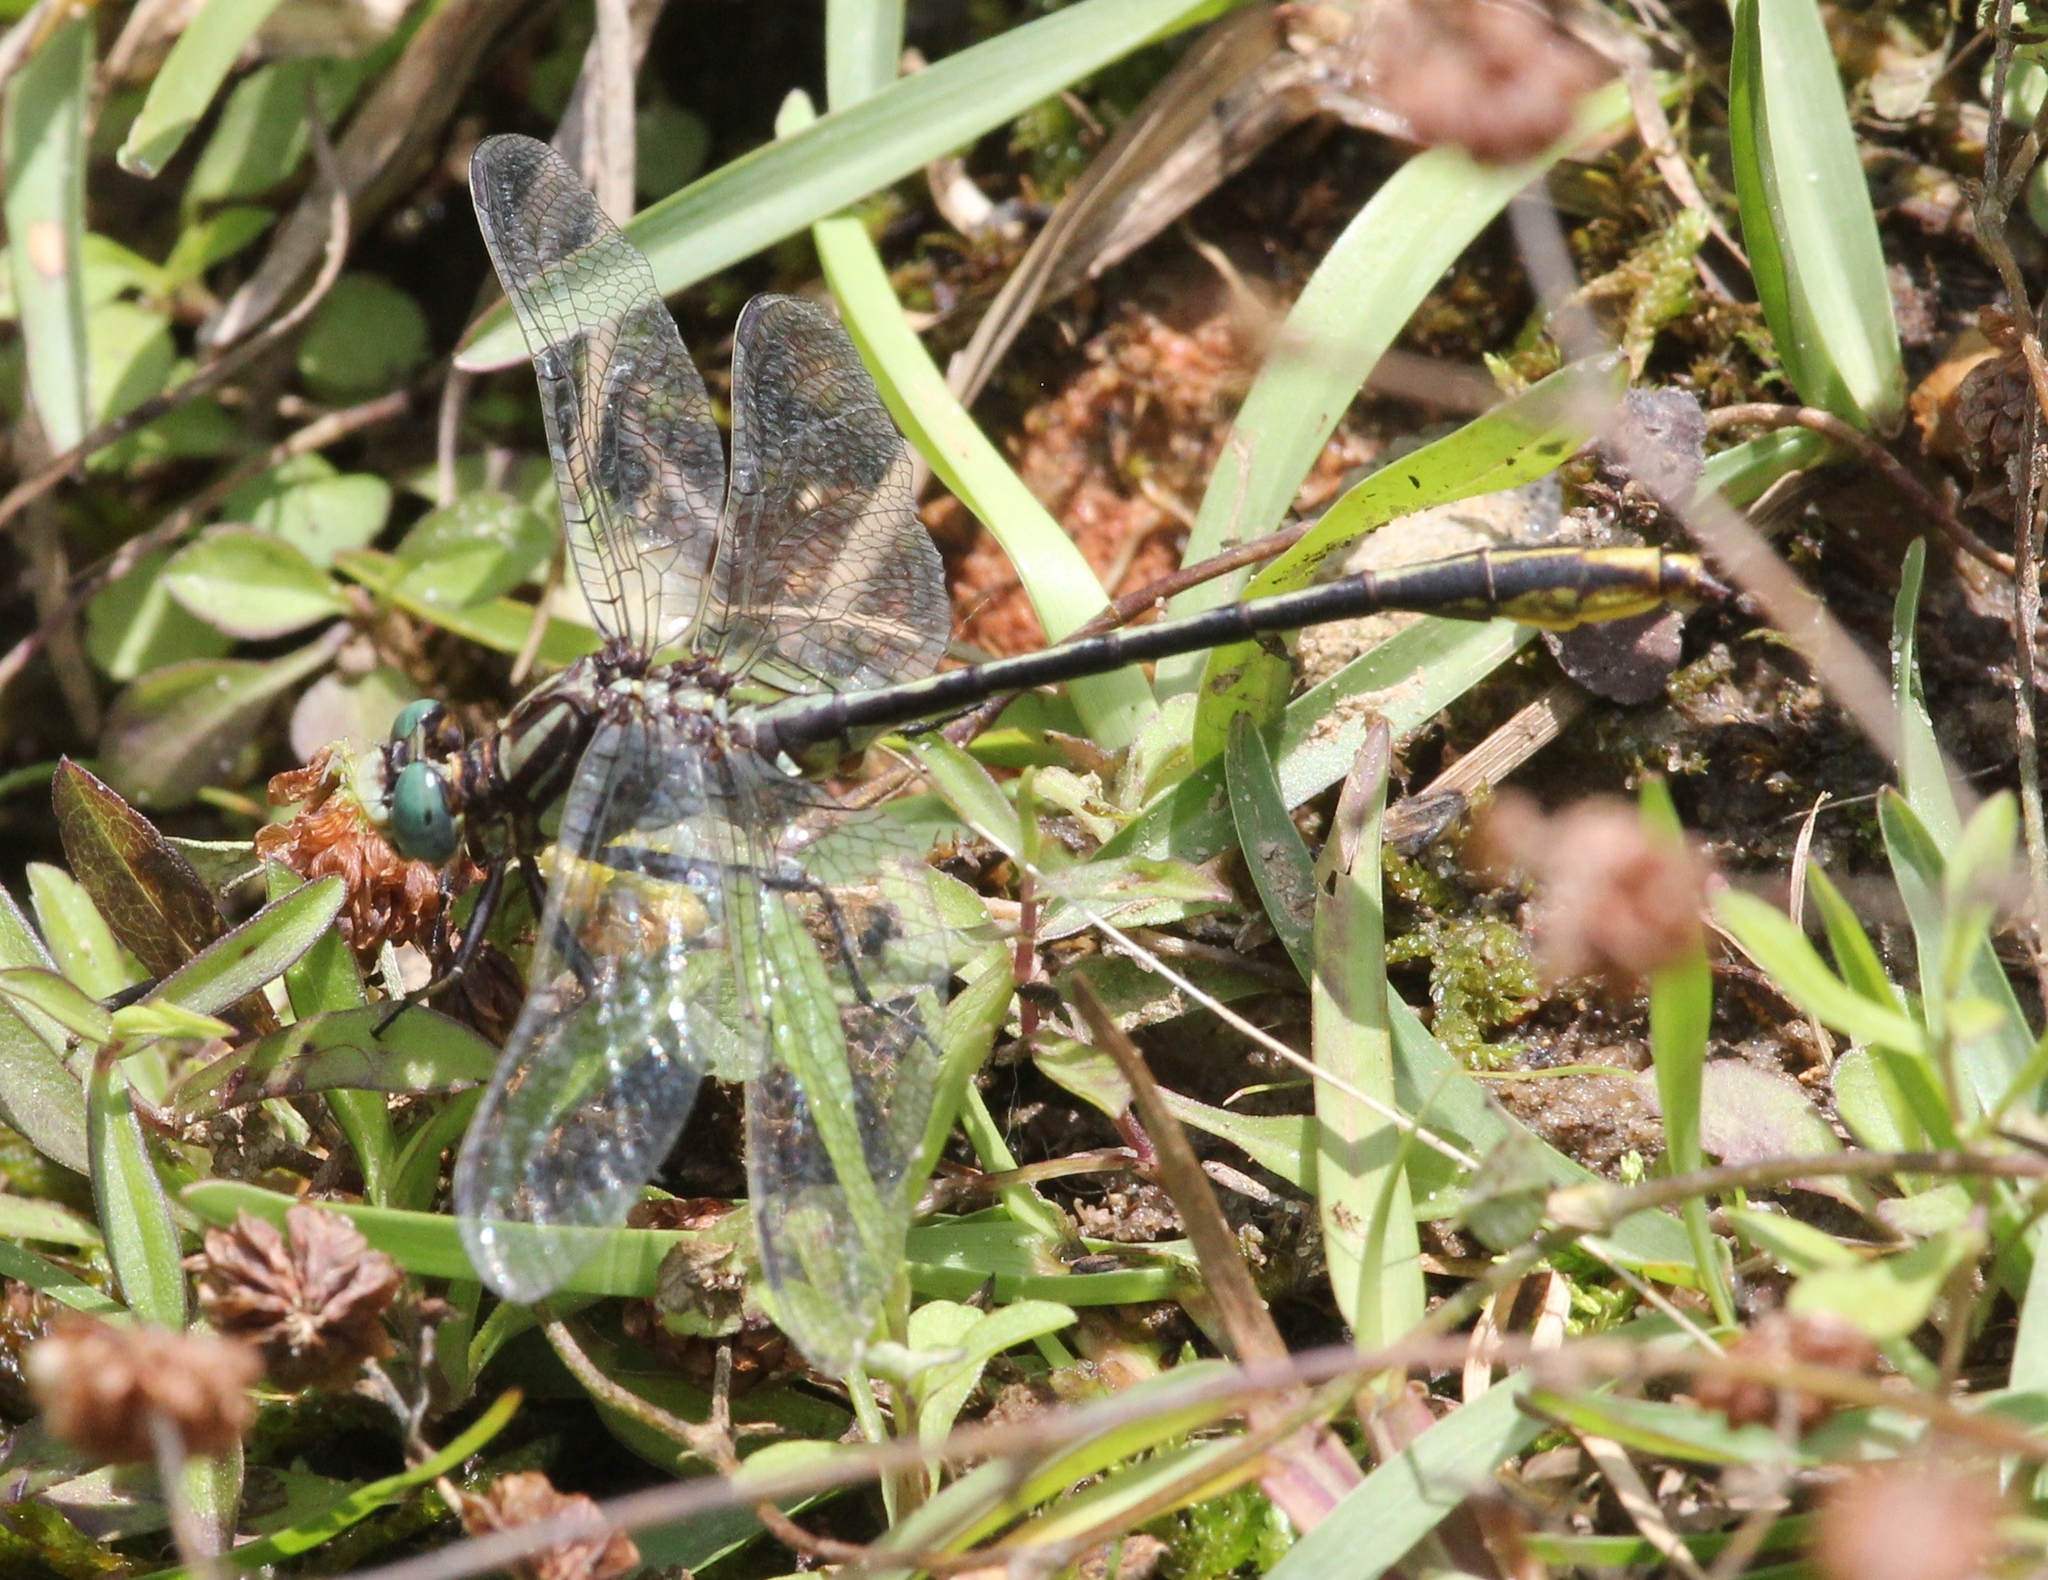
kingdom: Animalia
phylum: Arthropoda
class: Insecta
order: Odonata
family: Gomphidae
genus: Phanogomphus
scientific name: Phanogomphus exilis
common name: Lancet clubtail
